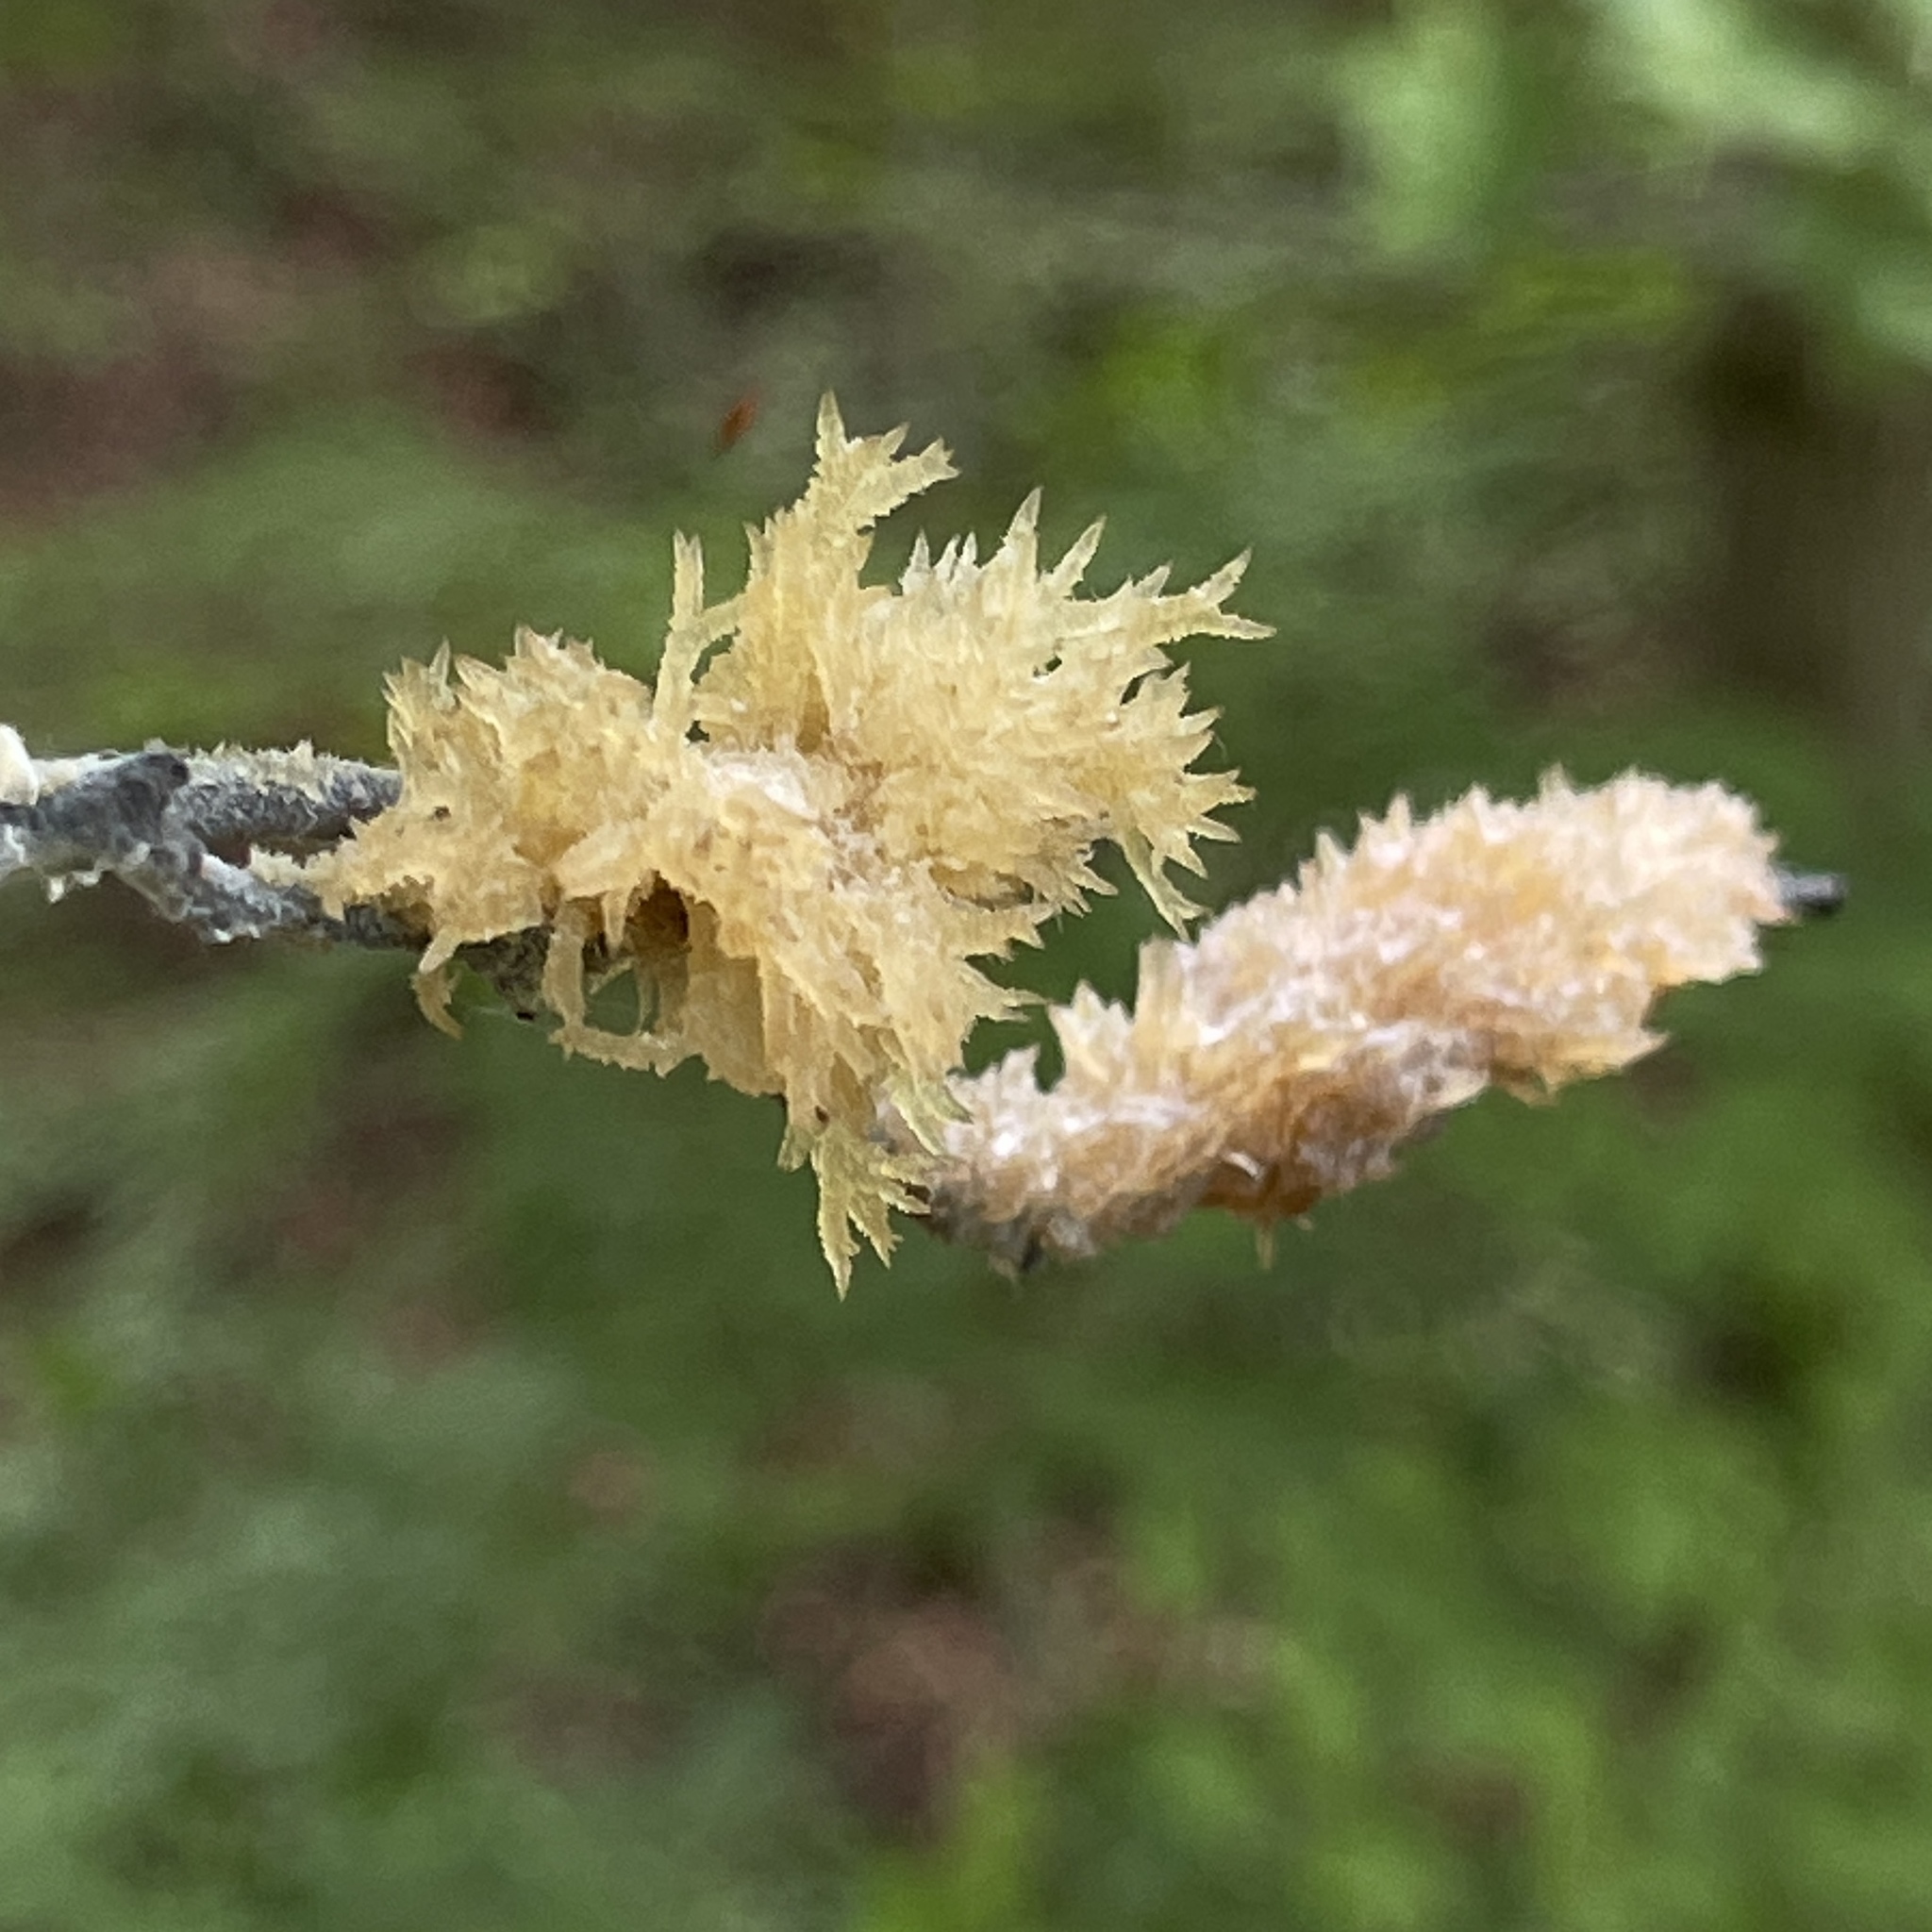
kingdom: Fungi
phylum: Ascomycota
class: Dothideomycetes
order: Capnodiales
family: Capnodiaceae
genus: Scorias
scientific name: Scorias spongiosa
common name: Black sooty mold
